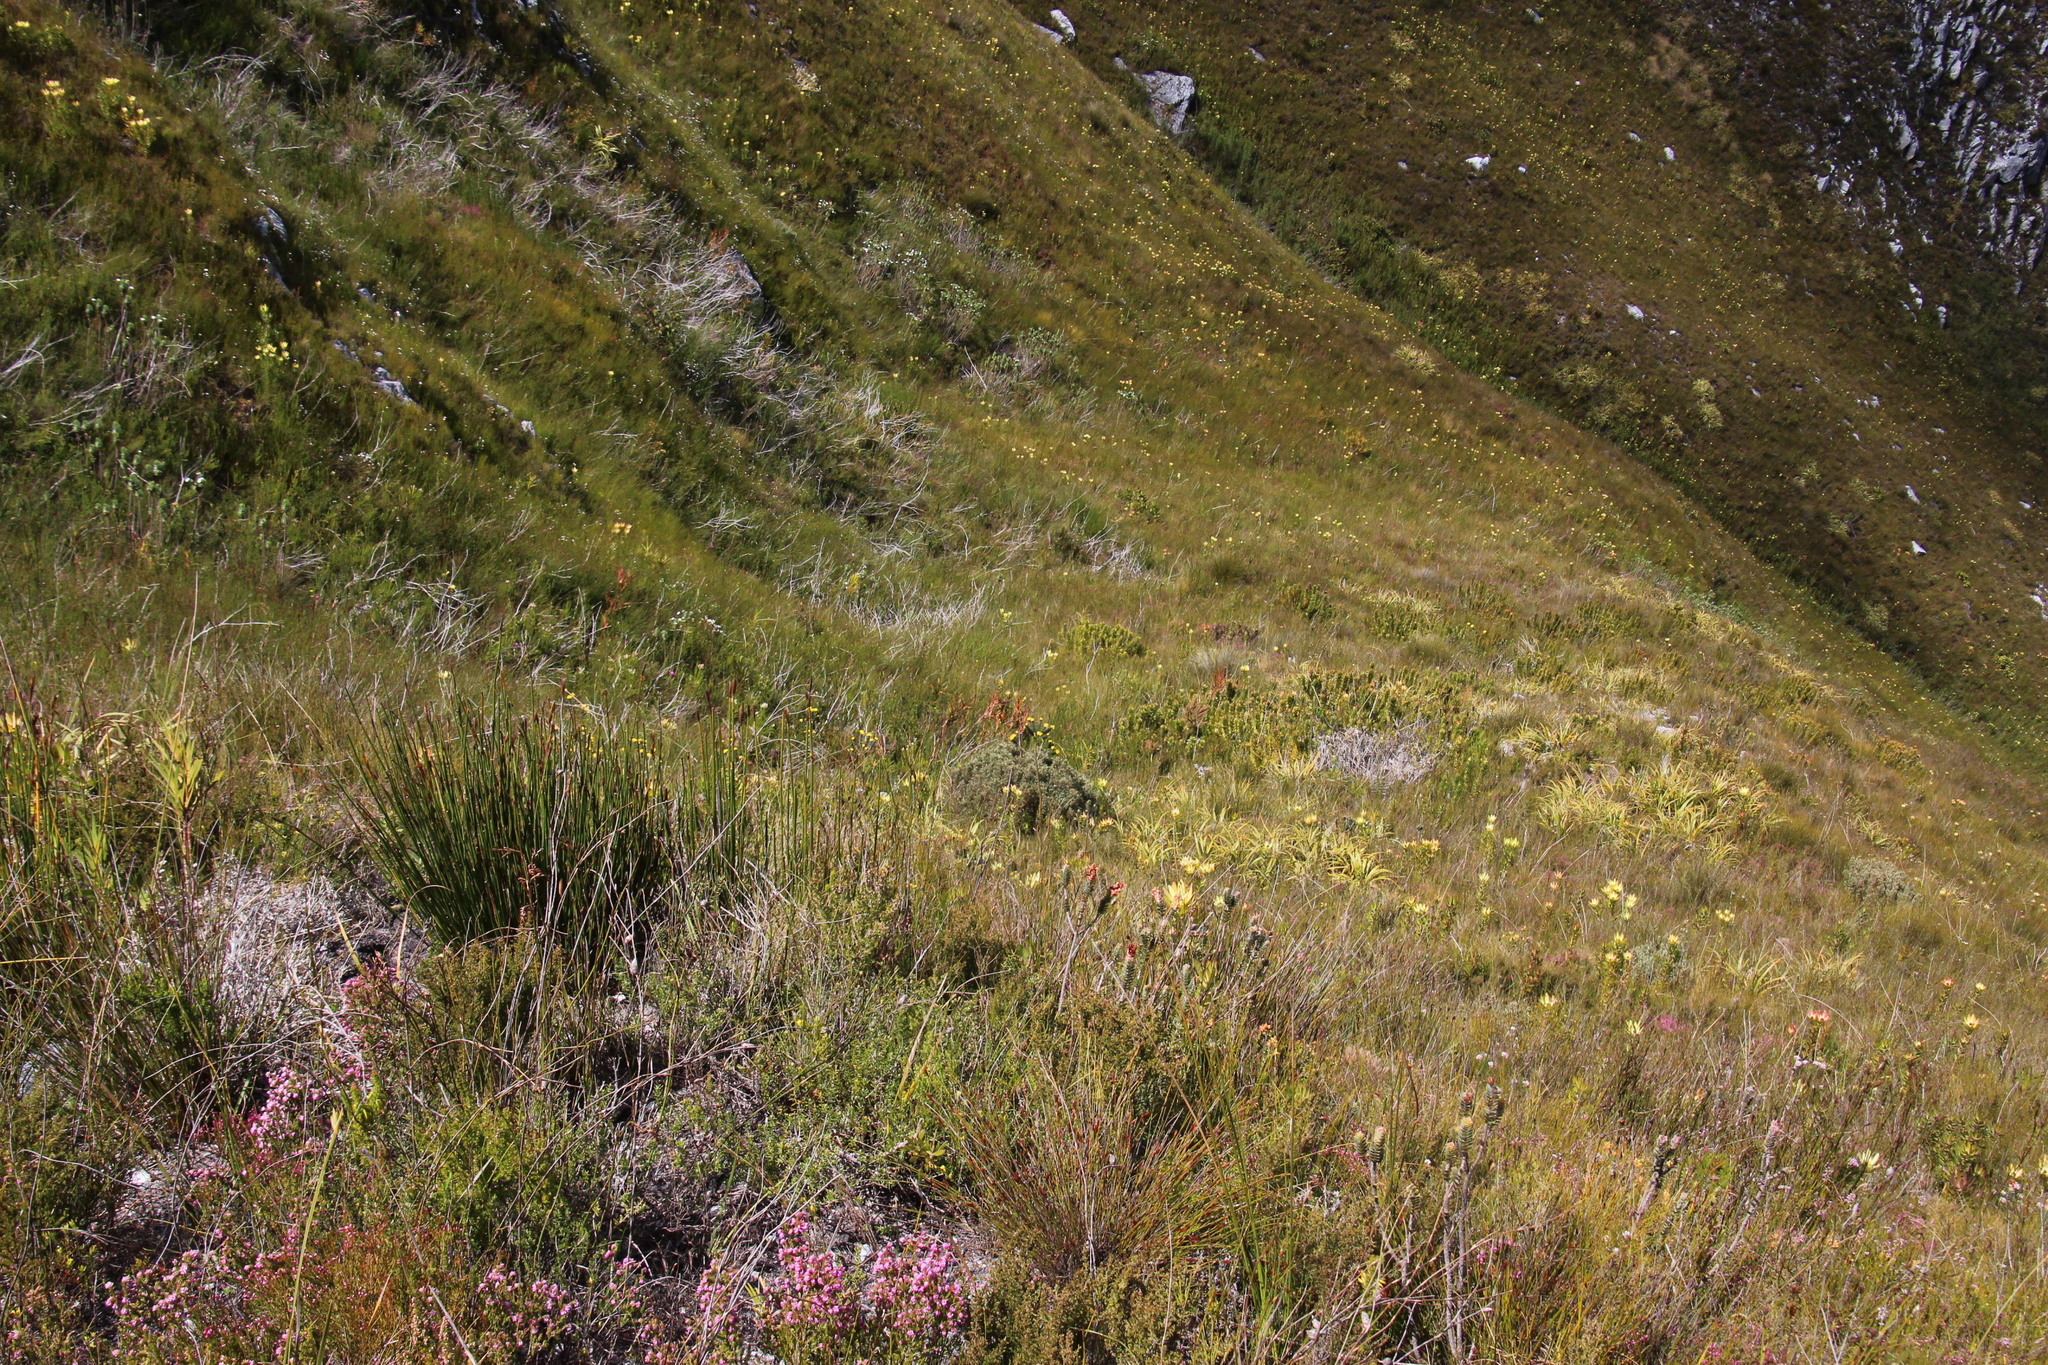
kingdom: Plantae
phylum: Tracheophyta
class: Liliopsida
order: Asparagales
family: Iridaceae
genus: Klattia
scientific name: Klattia stokoei
